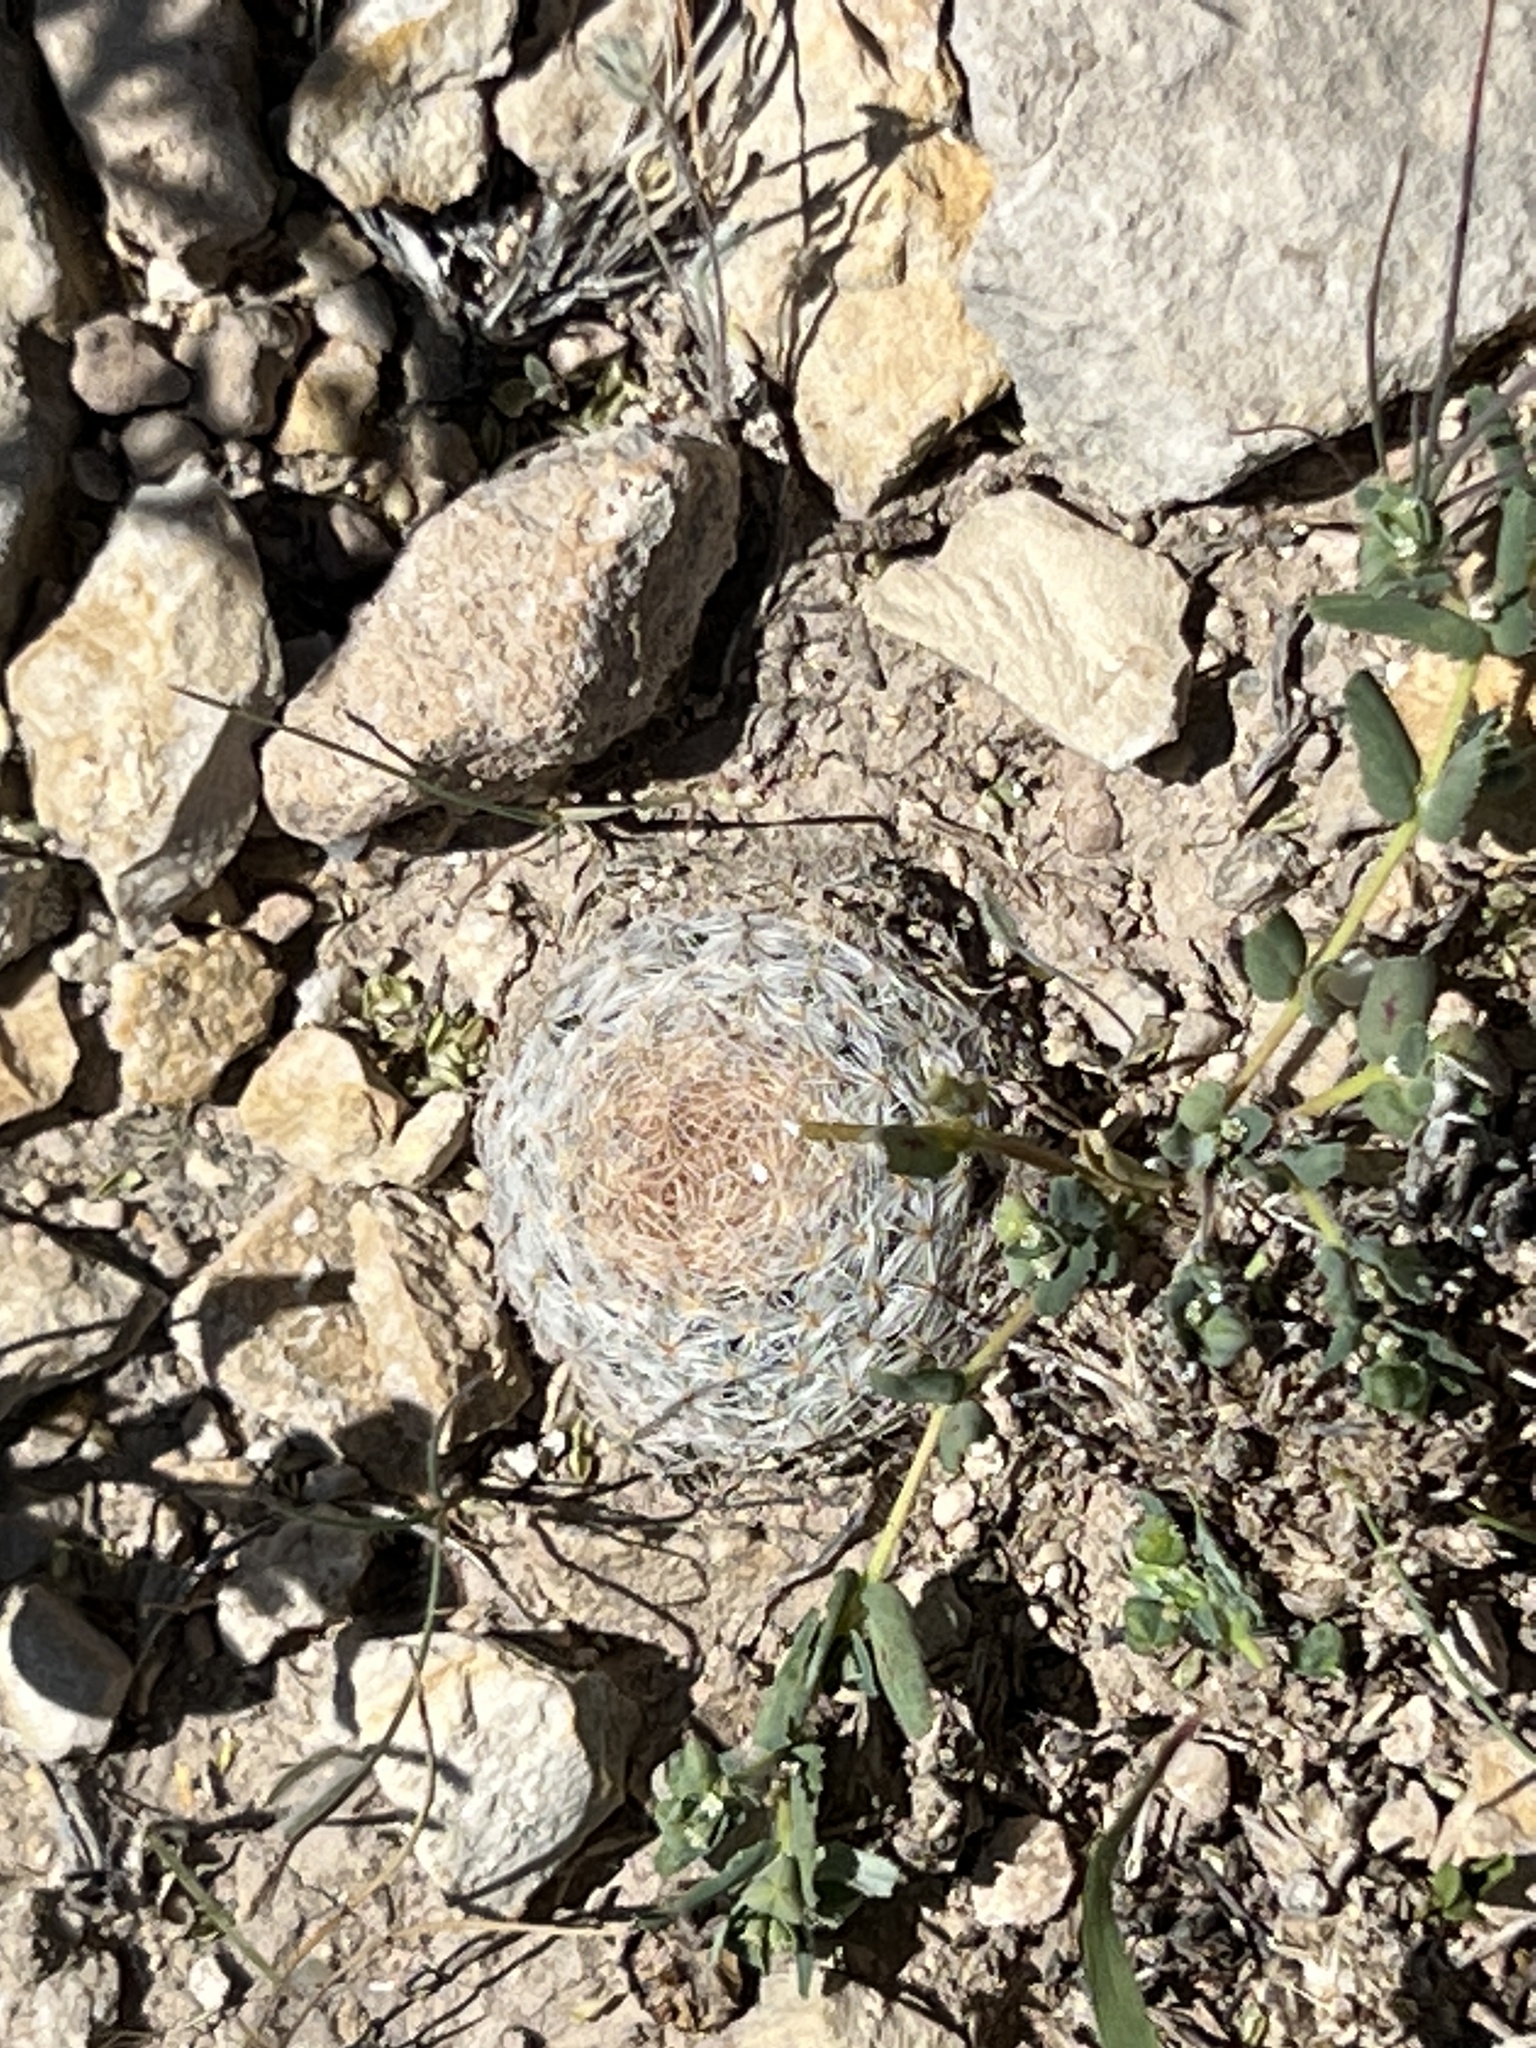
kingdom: Plantae
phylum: Tracheophyta
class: Magnoliopsida
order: Caryophyllales
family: Cactaceae
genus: Mammillaria
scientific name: Mammillaria lasiacantha
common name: Lace-spine nipple cactus
